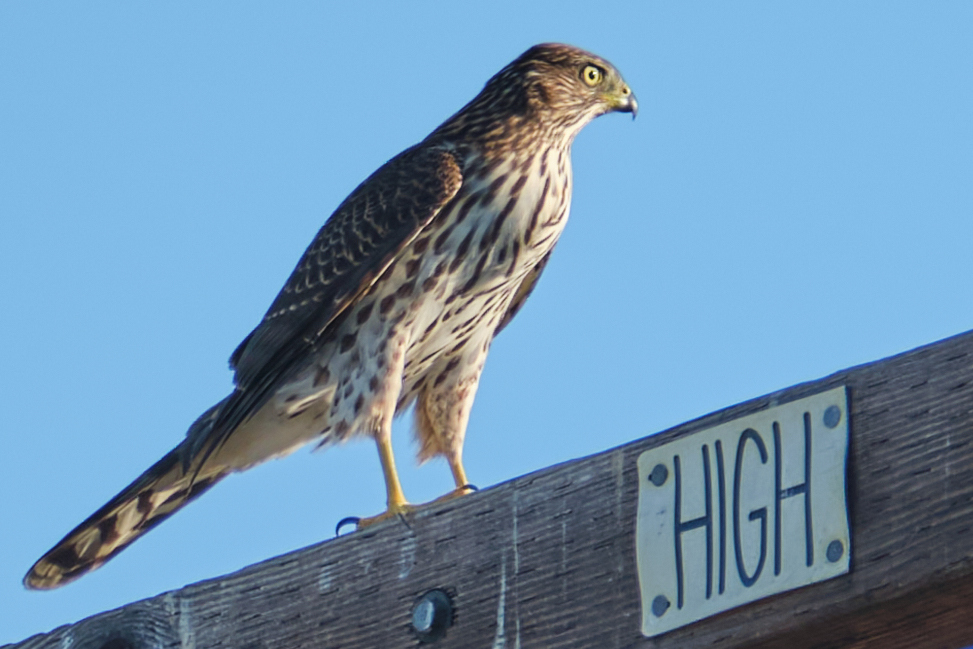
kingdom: Animalia
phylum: Chordata
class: Aves
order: Accipitriformes
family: Accipitridae
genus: Accipiter
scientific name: Accipiter cooperii
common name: Cooper's hawk
